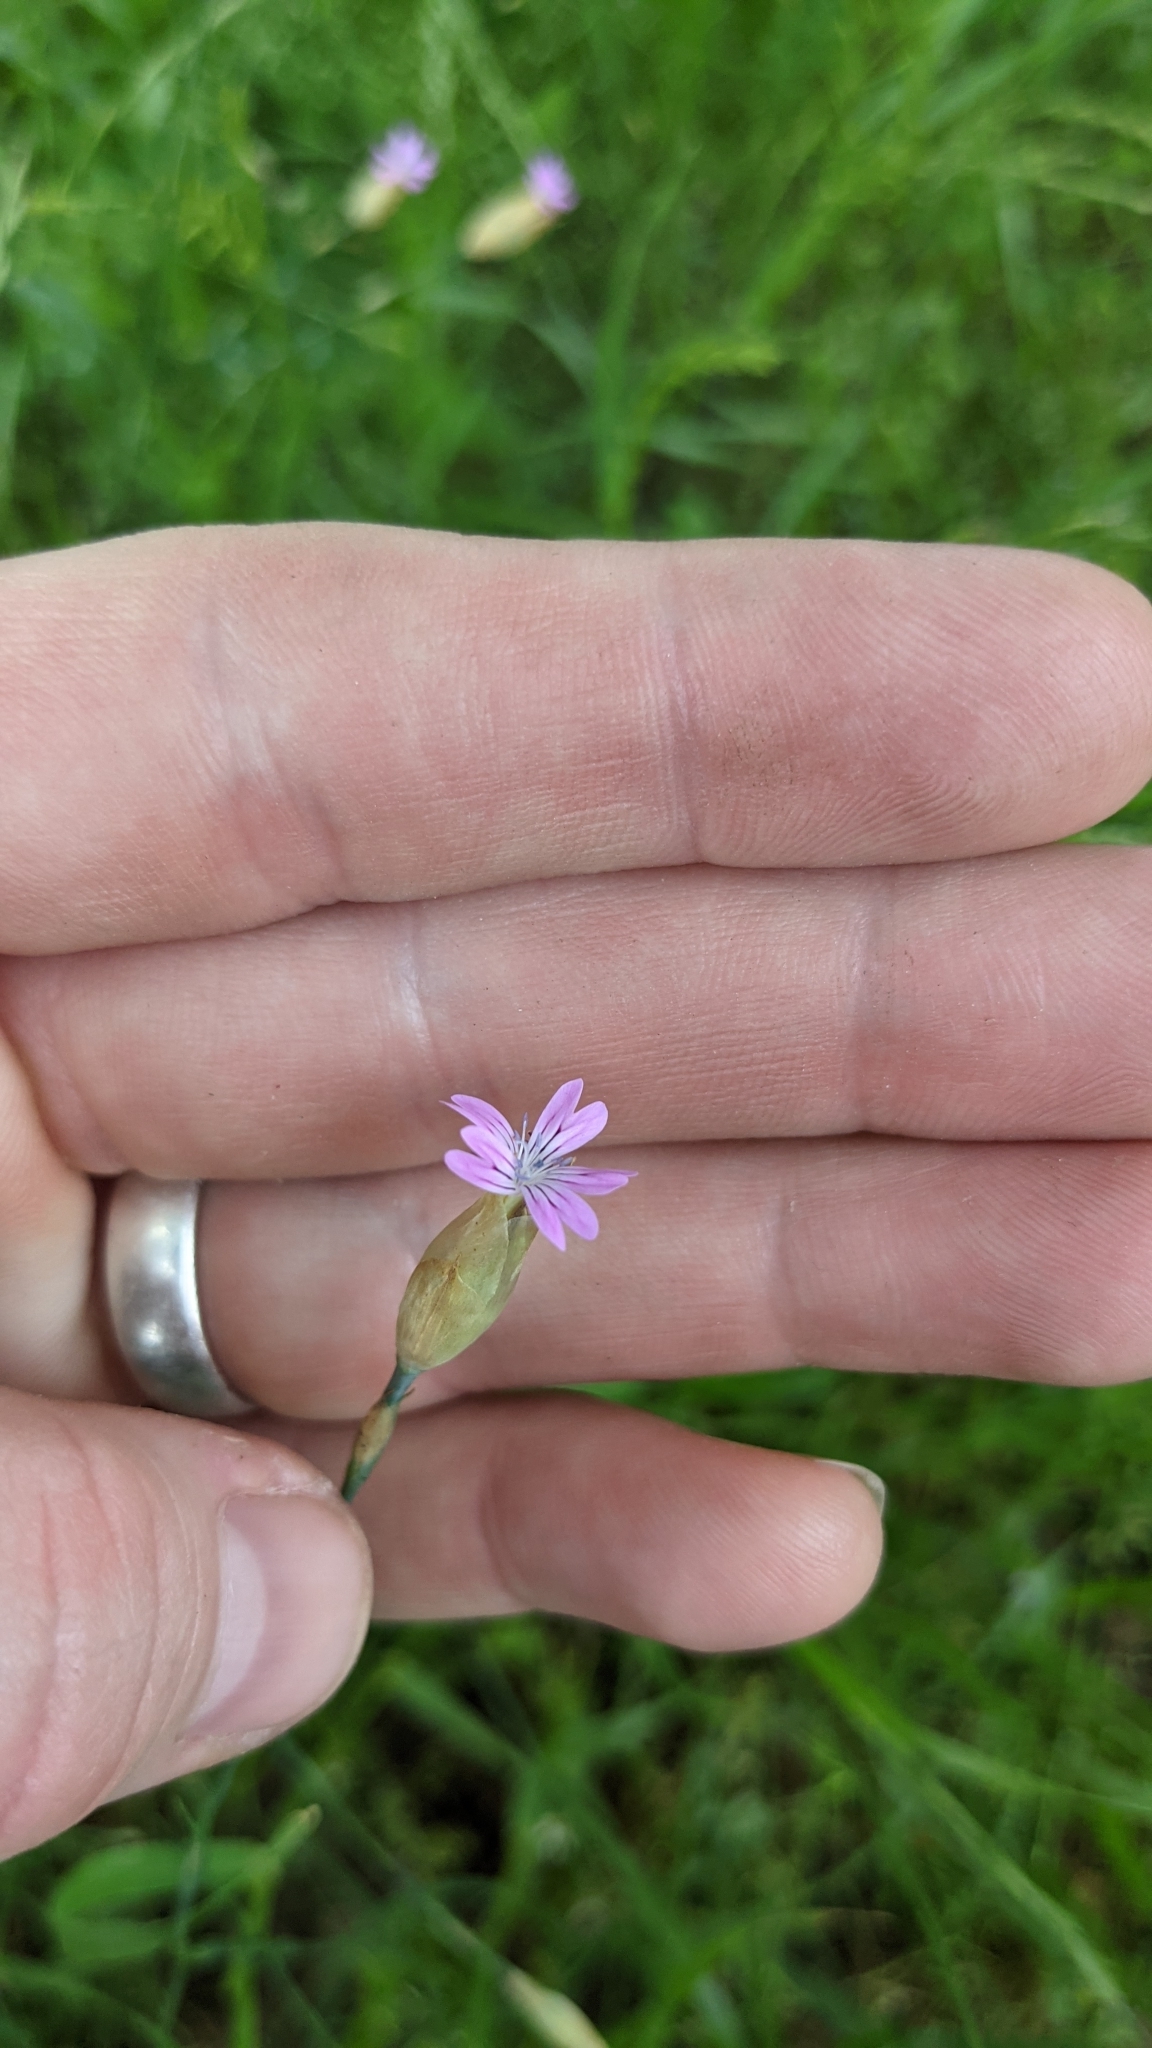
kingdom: Plantae
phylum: Tracheophyta
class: Magnoliopsida
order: Caryophyllales
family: Caryophyllaceae
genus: Petrorhagia
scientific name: Petrorhagia dubia
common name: Hairypink
